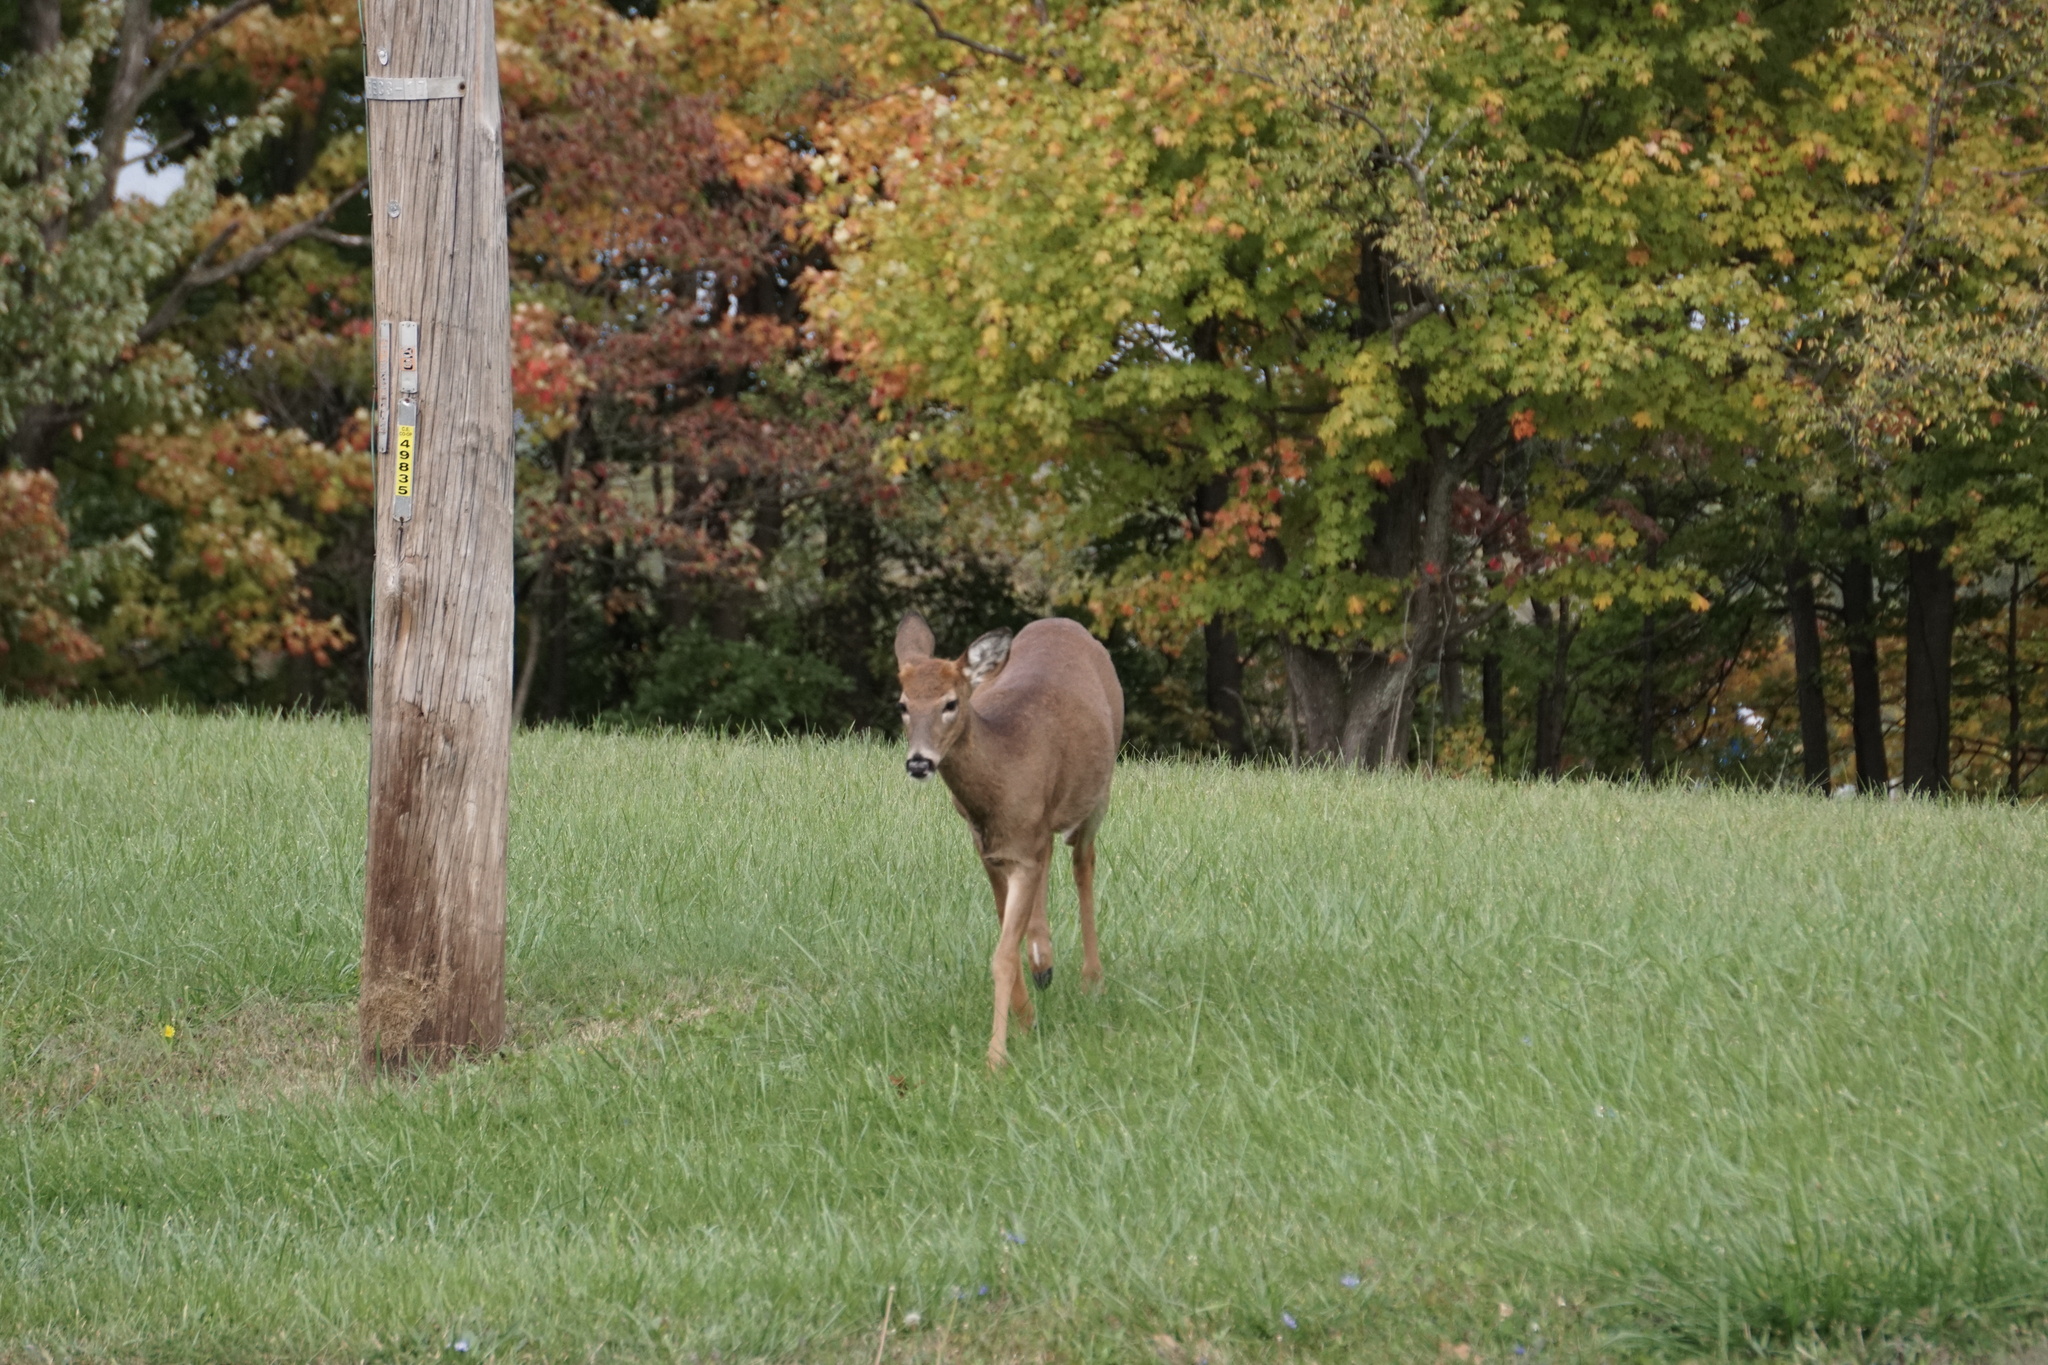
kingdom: Animalia
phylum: Chordata
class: Mammalia
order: Artiodactyla
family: Cervidae
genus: Odocoileus
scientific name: Odocoileus virginianus
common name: White-tailed deer
